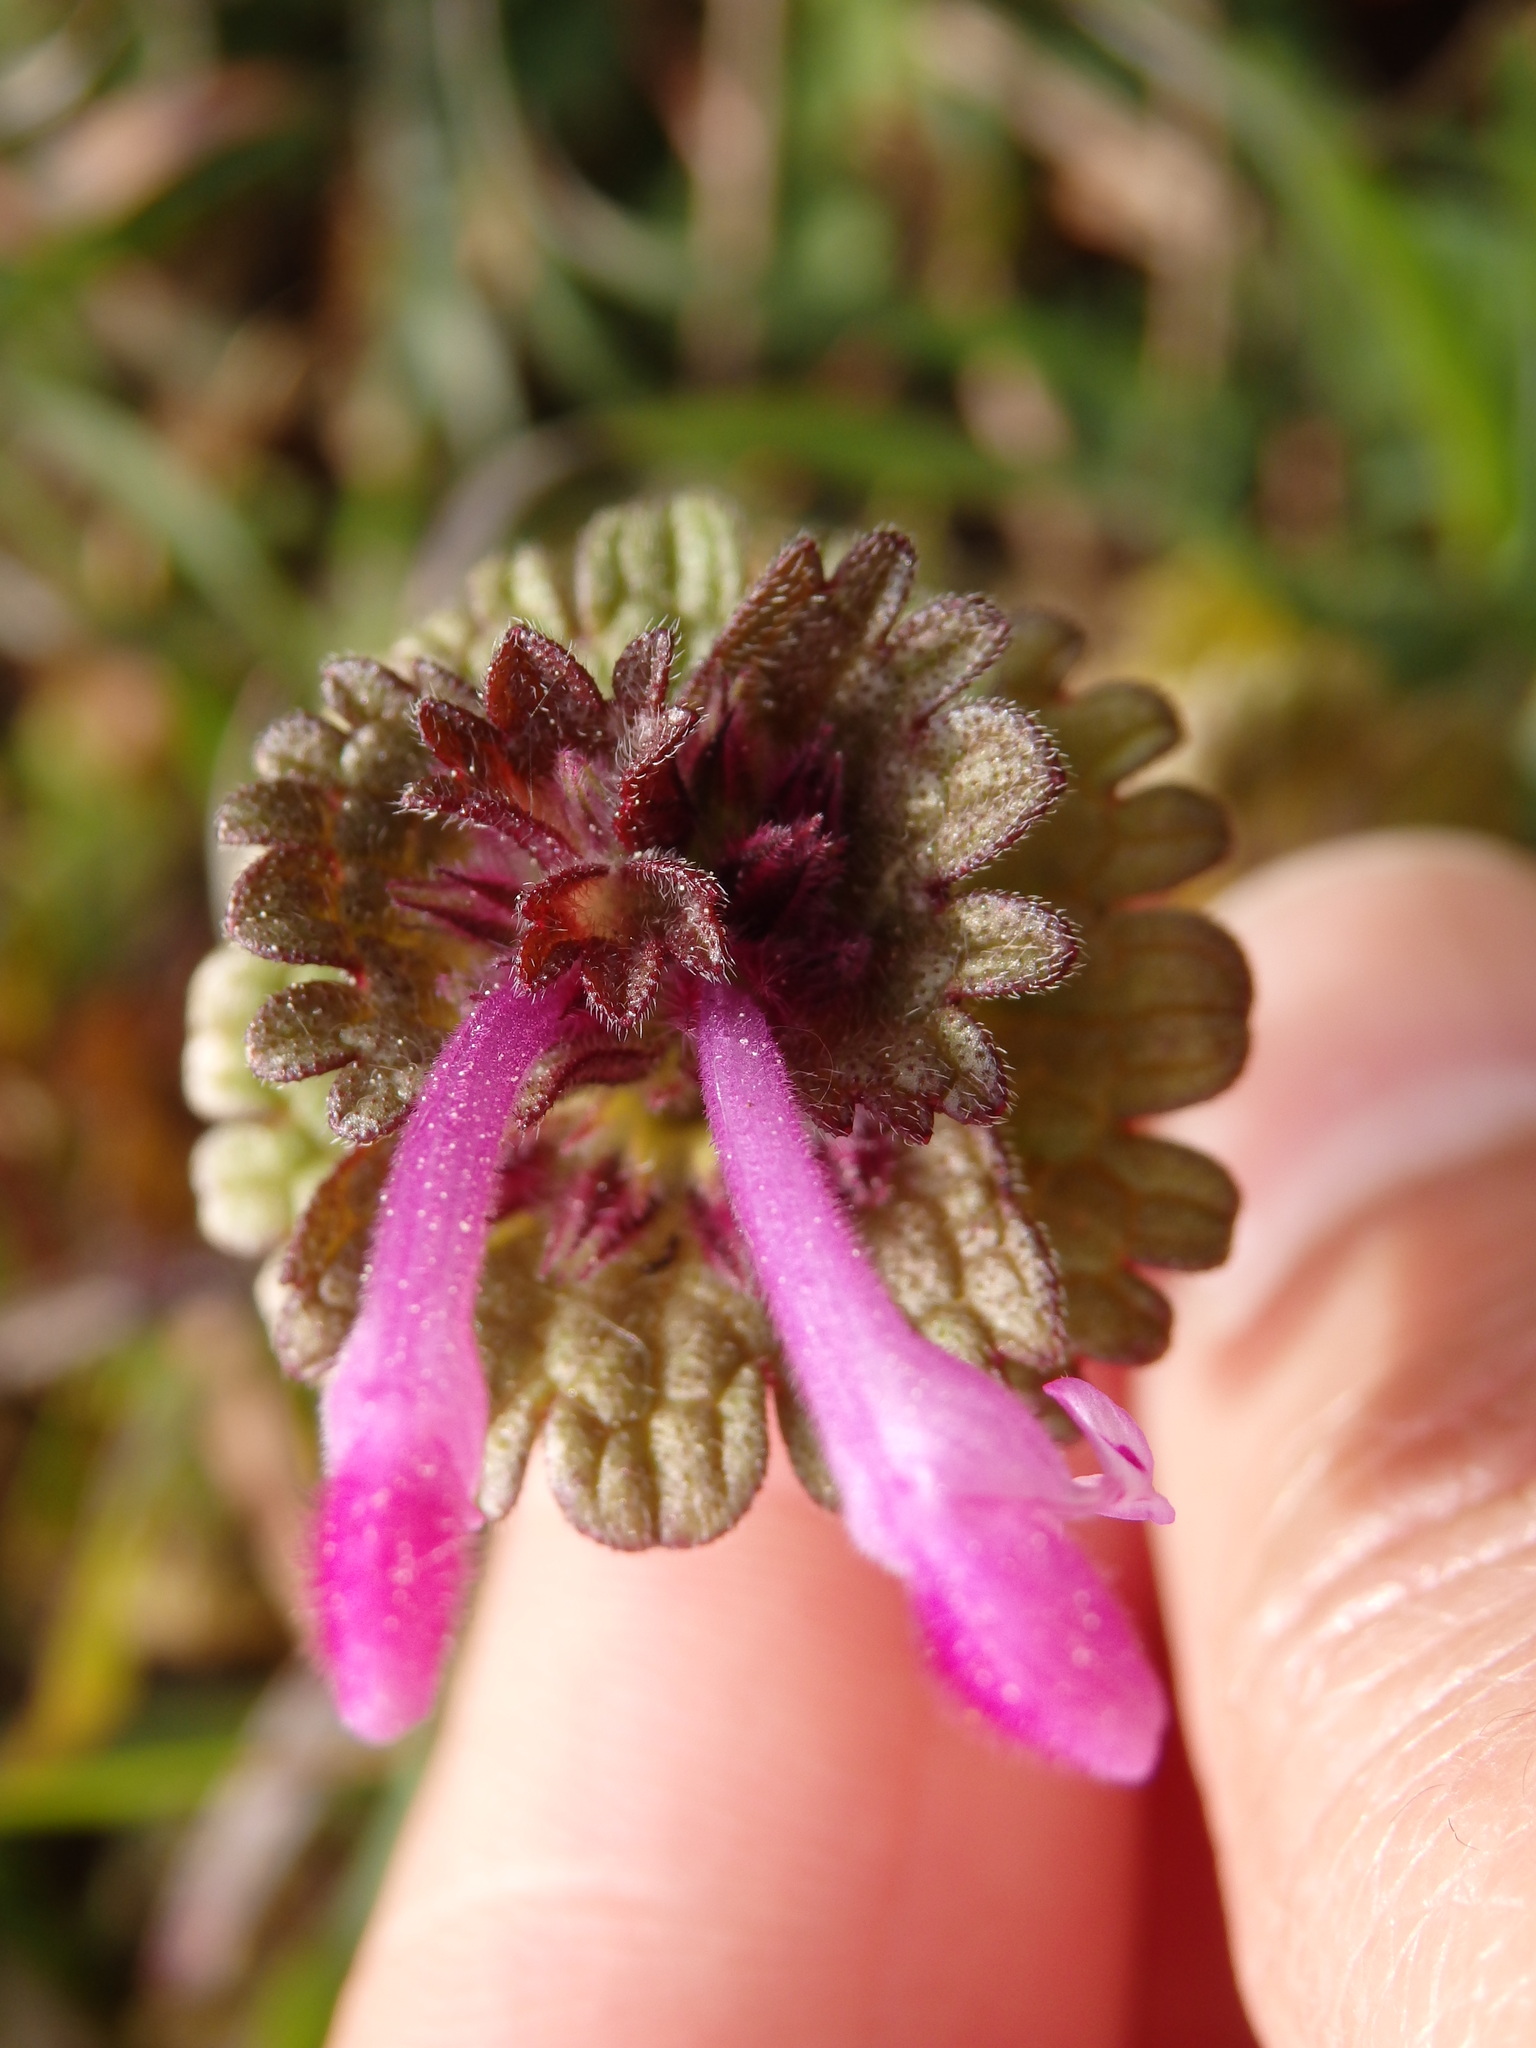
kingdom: Plantae
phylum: Tracheophyta
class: Magnoliopsida
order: Lamiales
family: Lamiaceae
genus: Lamium
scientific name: Lamium amplexicaule
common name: Henbit dead-nettle
